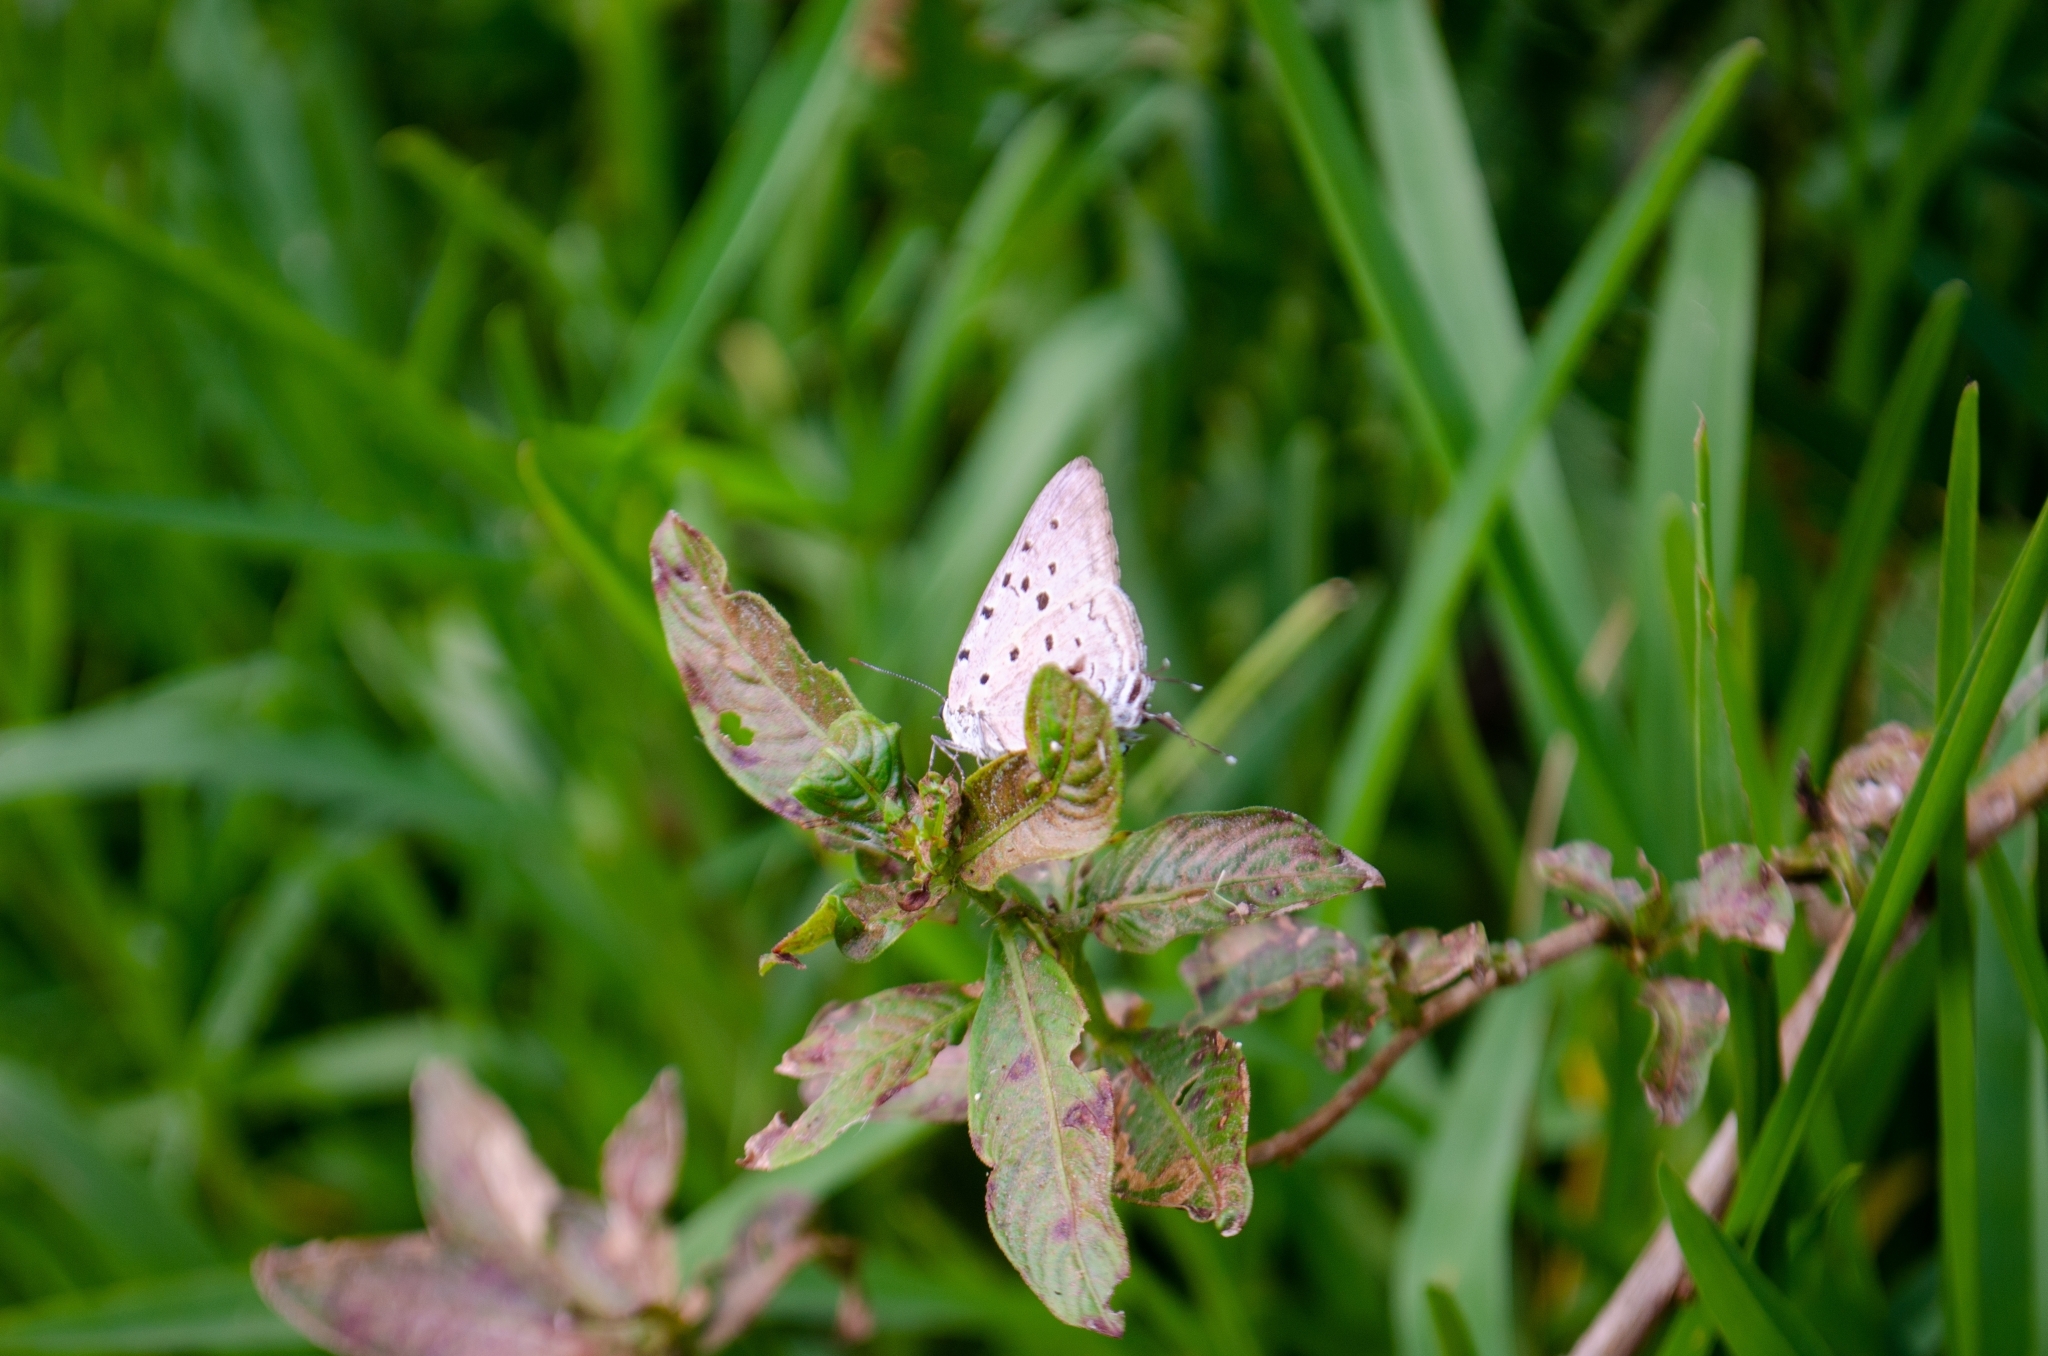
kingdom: Animalia
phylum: Arthropoda
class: Insecta
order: Lepidoptera
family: Lycaenidae
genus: Pseudolycaena
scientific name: Pseudolycaena marsyas
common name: Marsyas hairstreak
